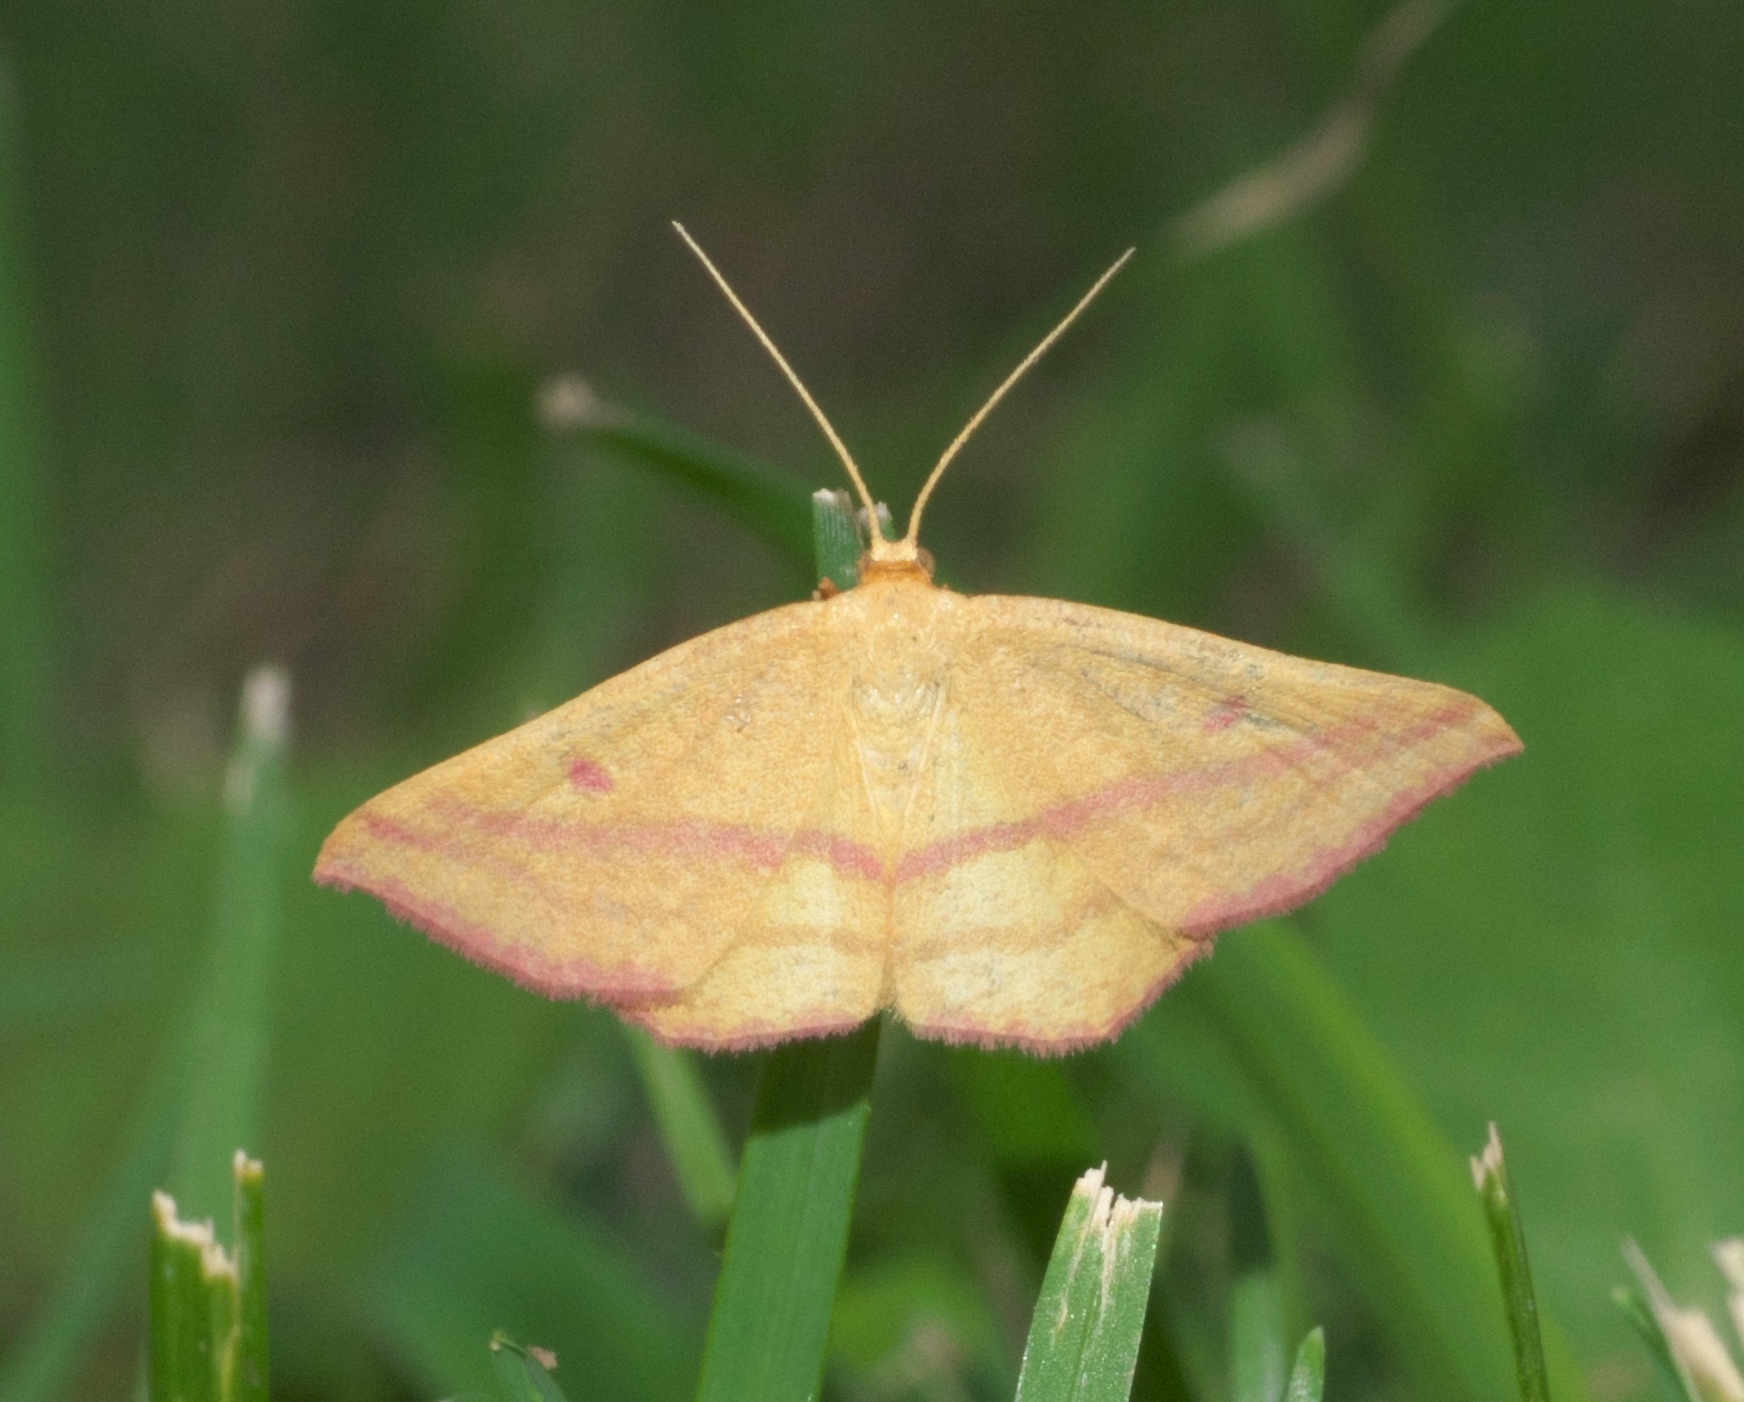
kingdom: Animalia
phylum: Arthropoda
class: Insecta
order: Lepidoptera
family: Geometridae
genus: Haematopis
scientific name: Haematopis grataria
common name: Chickweed geometer
